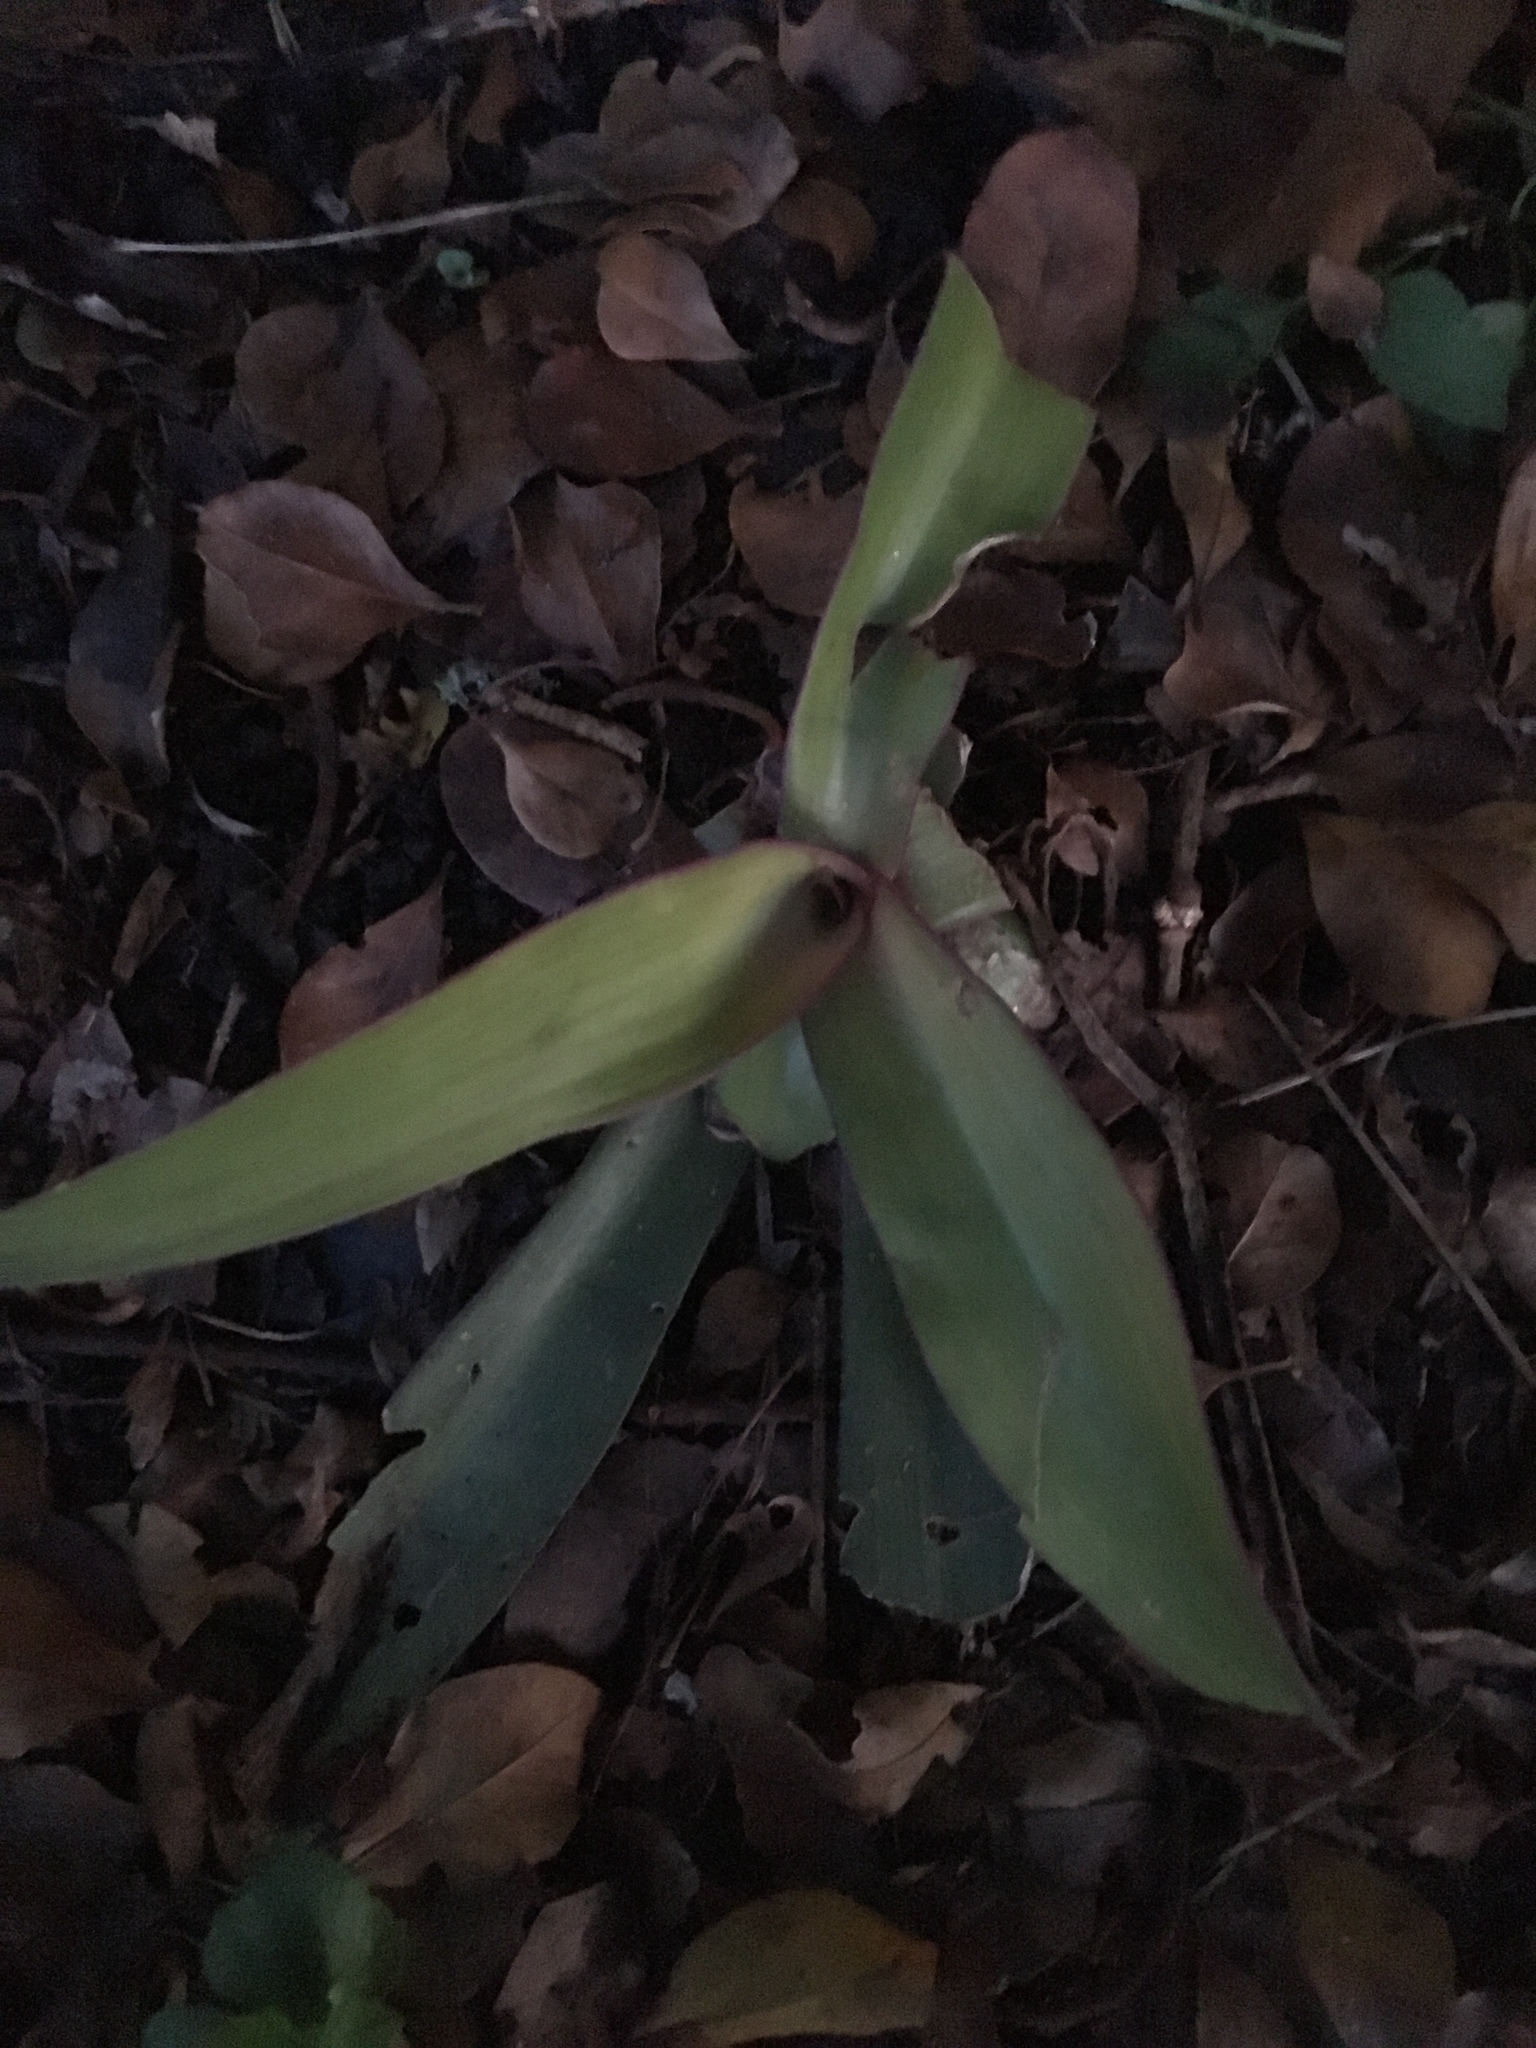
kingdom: Plantae
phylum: Tracheophyta
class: Liliopsida
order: Commelinales
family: Commelinaceae
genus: Tradescantia
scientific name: Tradescantia spathacea
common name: Boatlily
